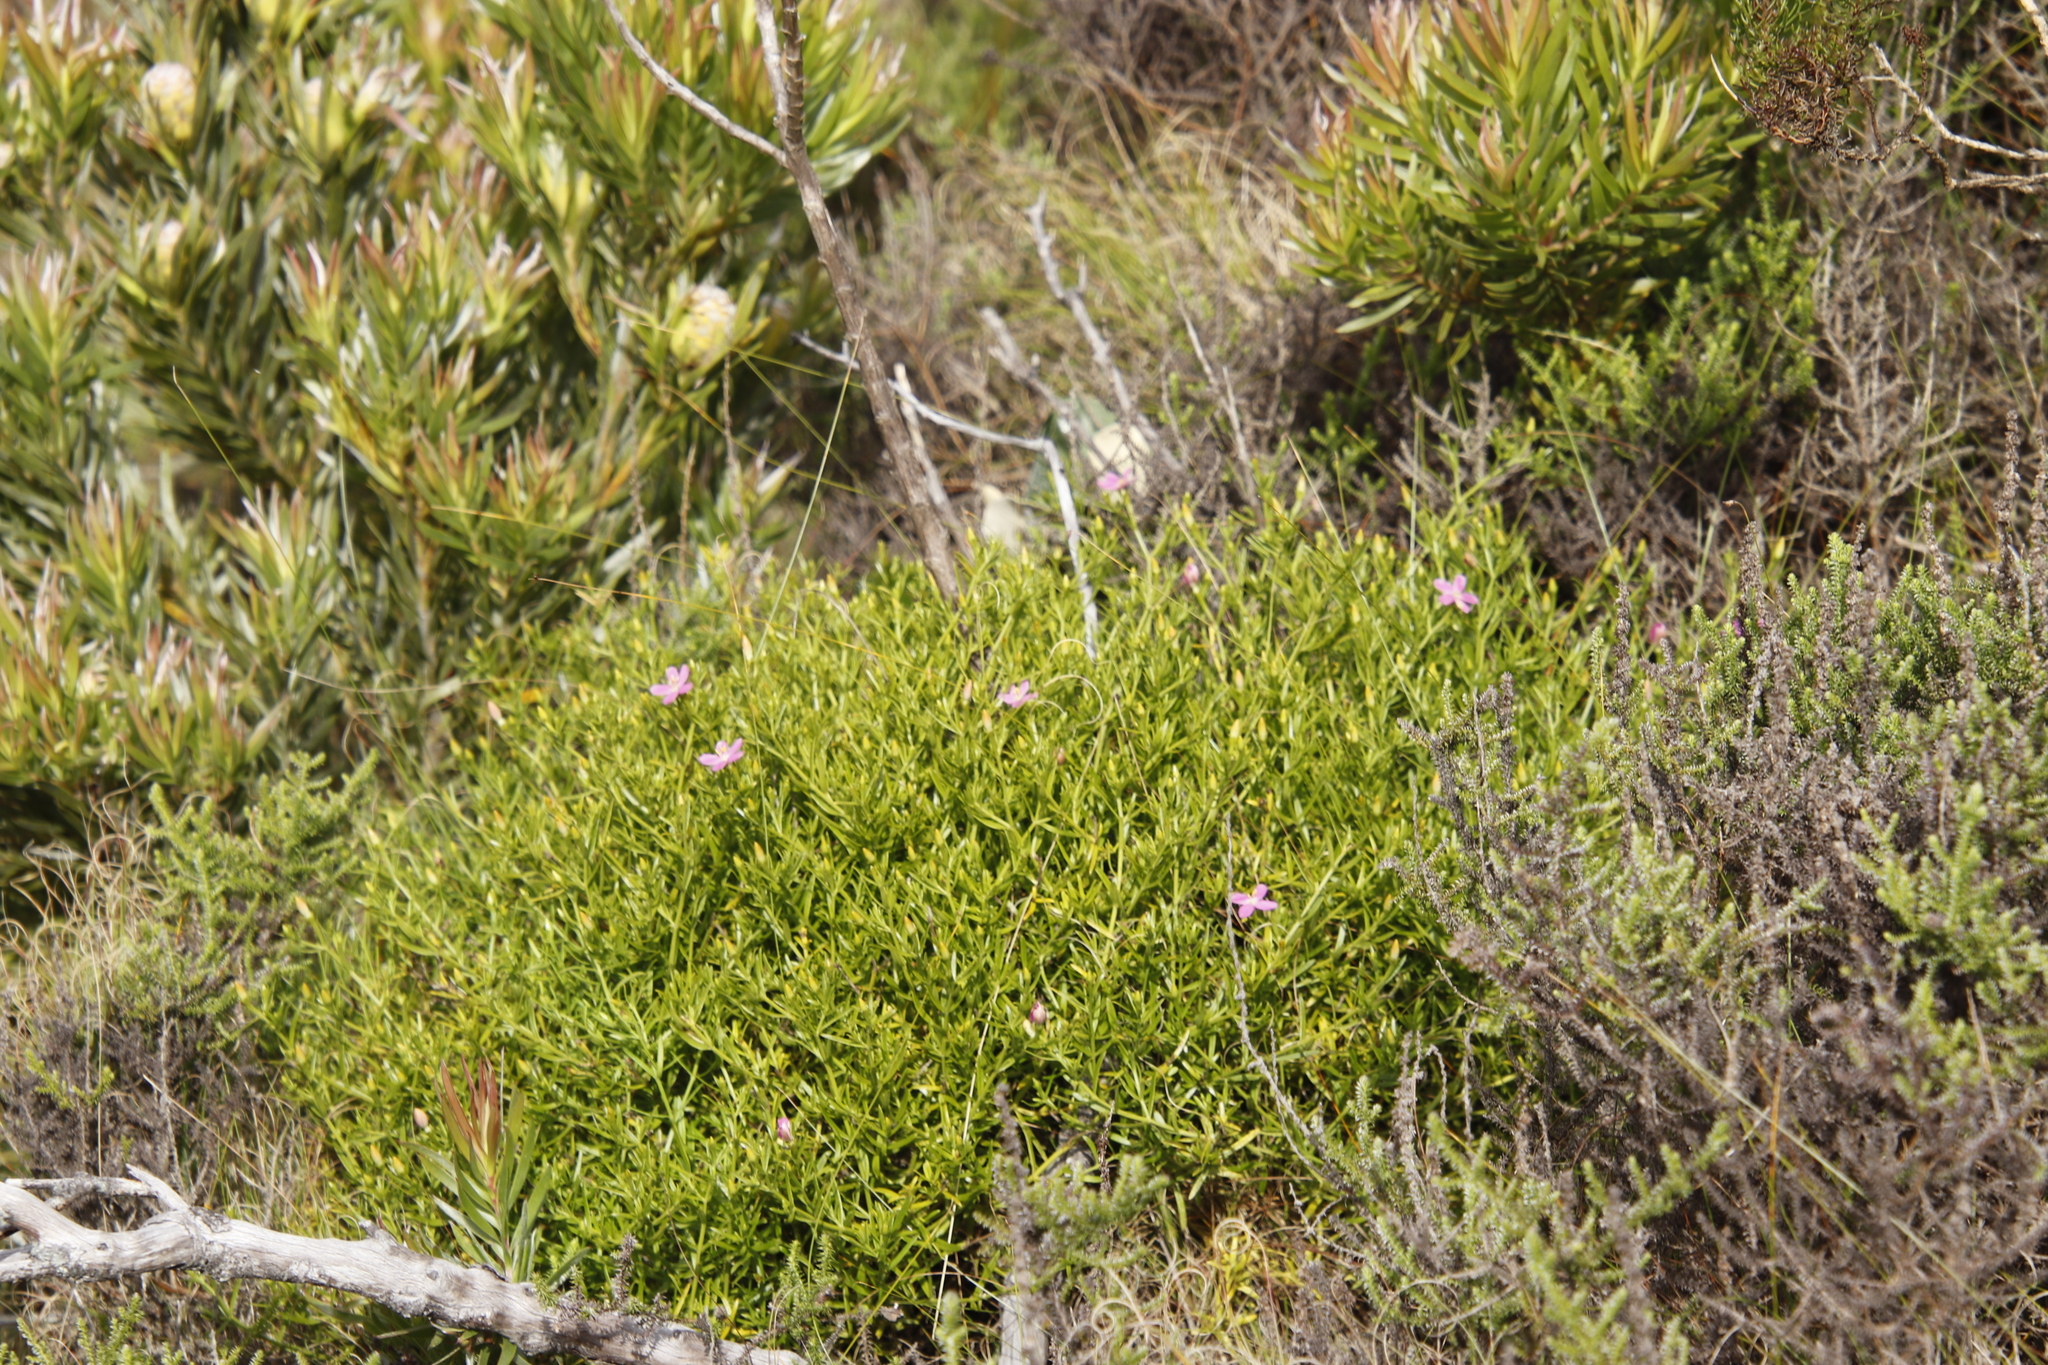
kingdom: Plantae
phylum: Tracheophyta
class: Magnoliopsida
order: Gentianales
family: Gentianaceae
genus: Chironia
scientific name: Chironia baccifera
